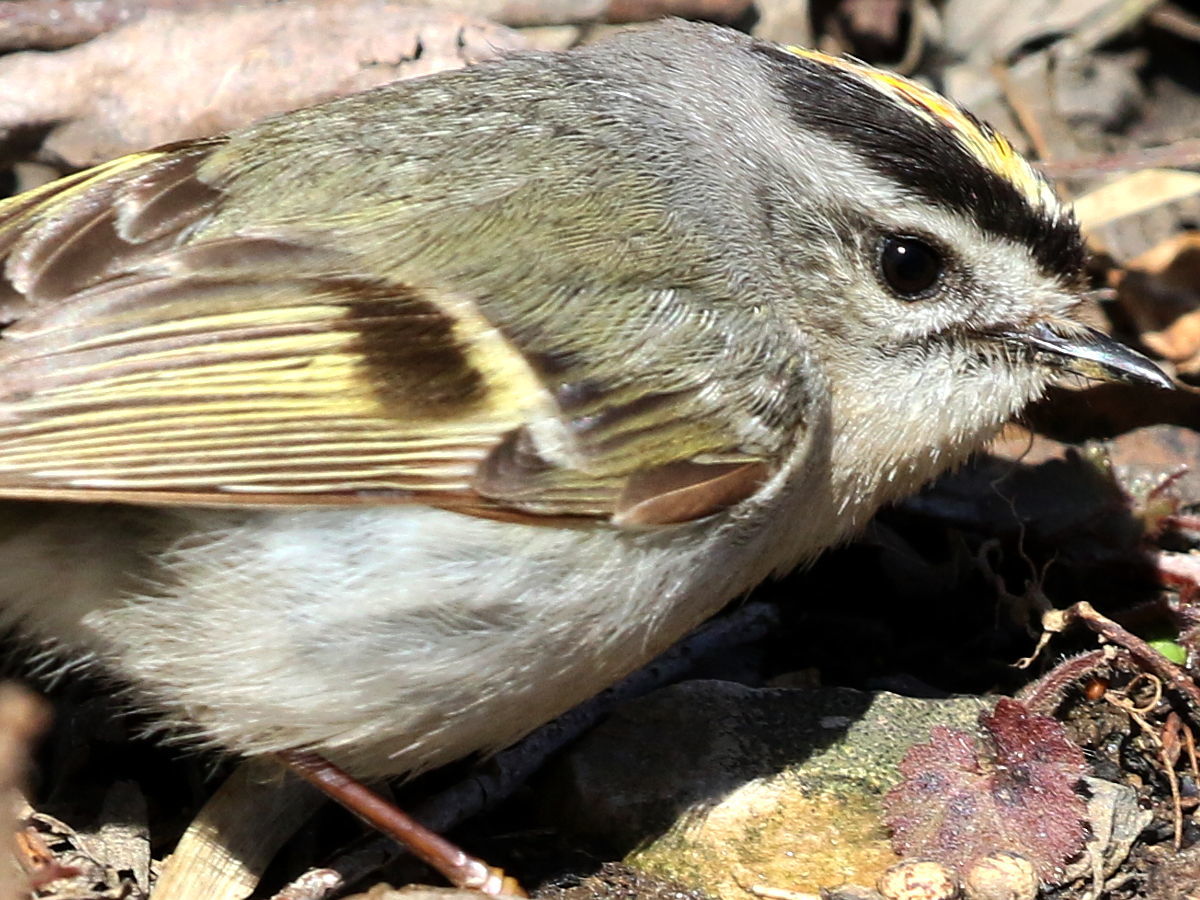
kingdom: Animalia
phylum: Chordata
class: Aves
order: Passeriformes
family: Regulidae
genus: Regulus
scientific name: Regulus satrapa
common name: Golden-crowned kinglet
